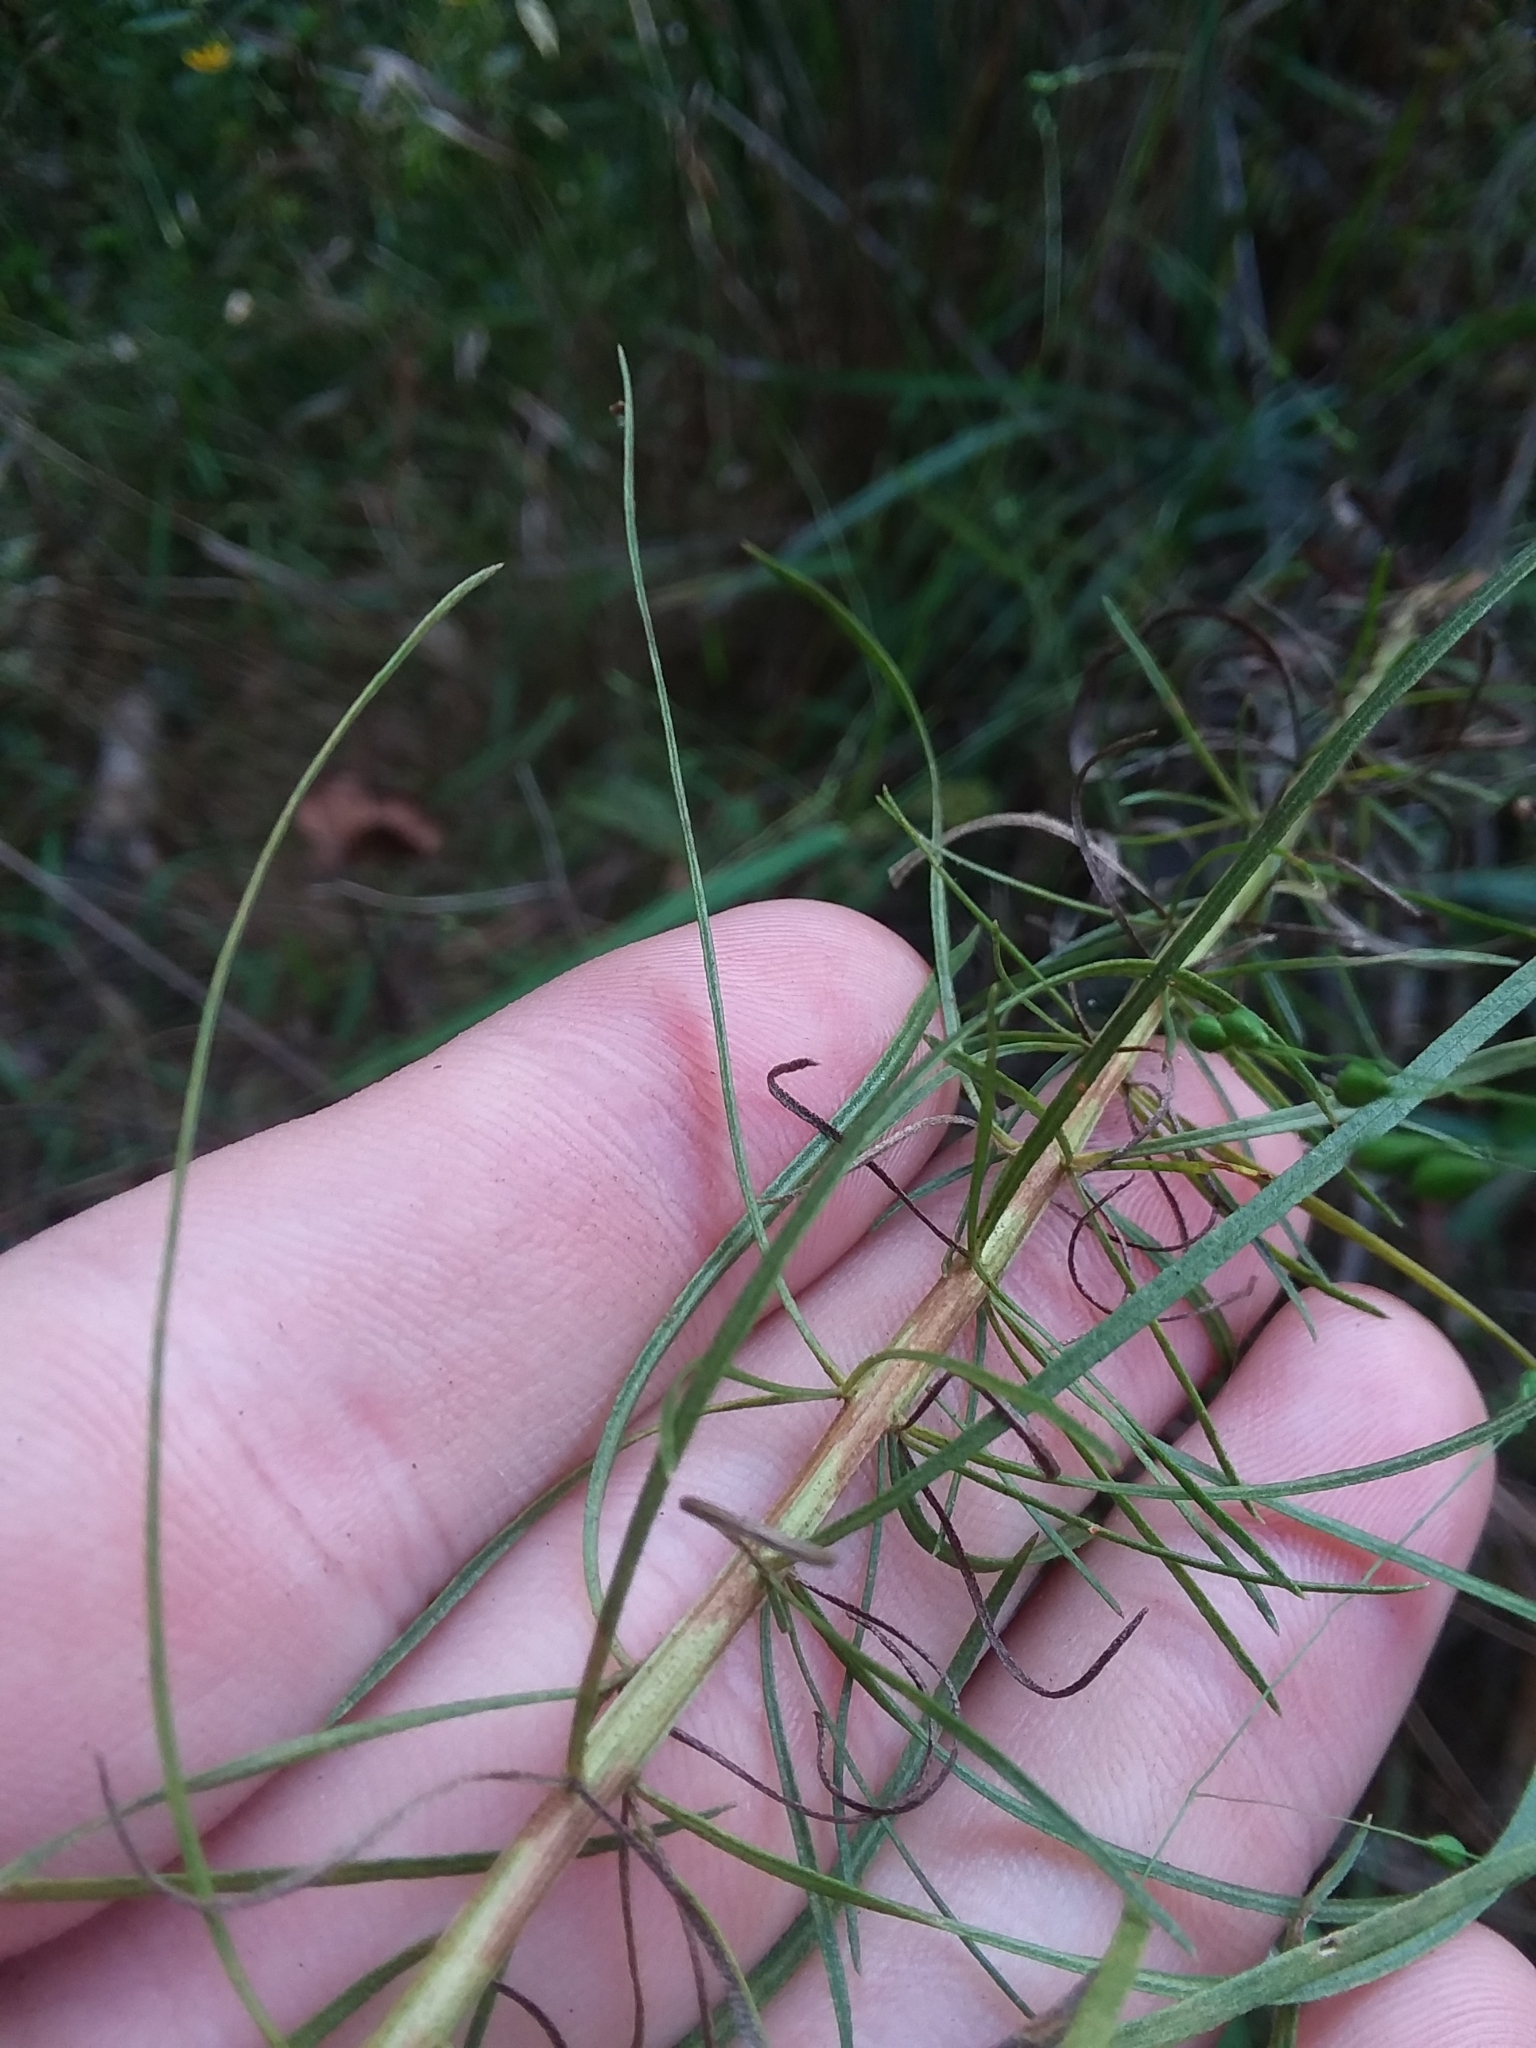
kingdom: Plantae
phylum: Tracheophyta
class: Magnoliopsida
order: Asterales
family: Asteraceae
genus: Euthamia
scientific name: Euthamia caroliniana
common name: Coastal plain goldentop
